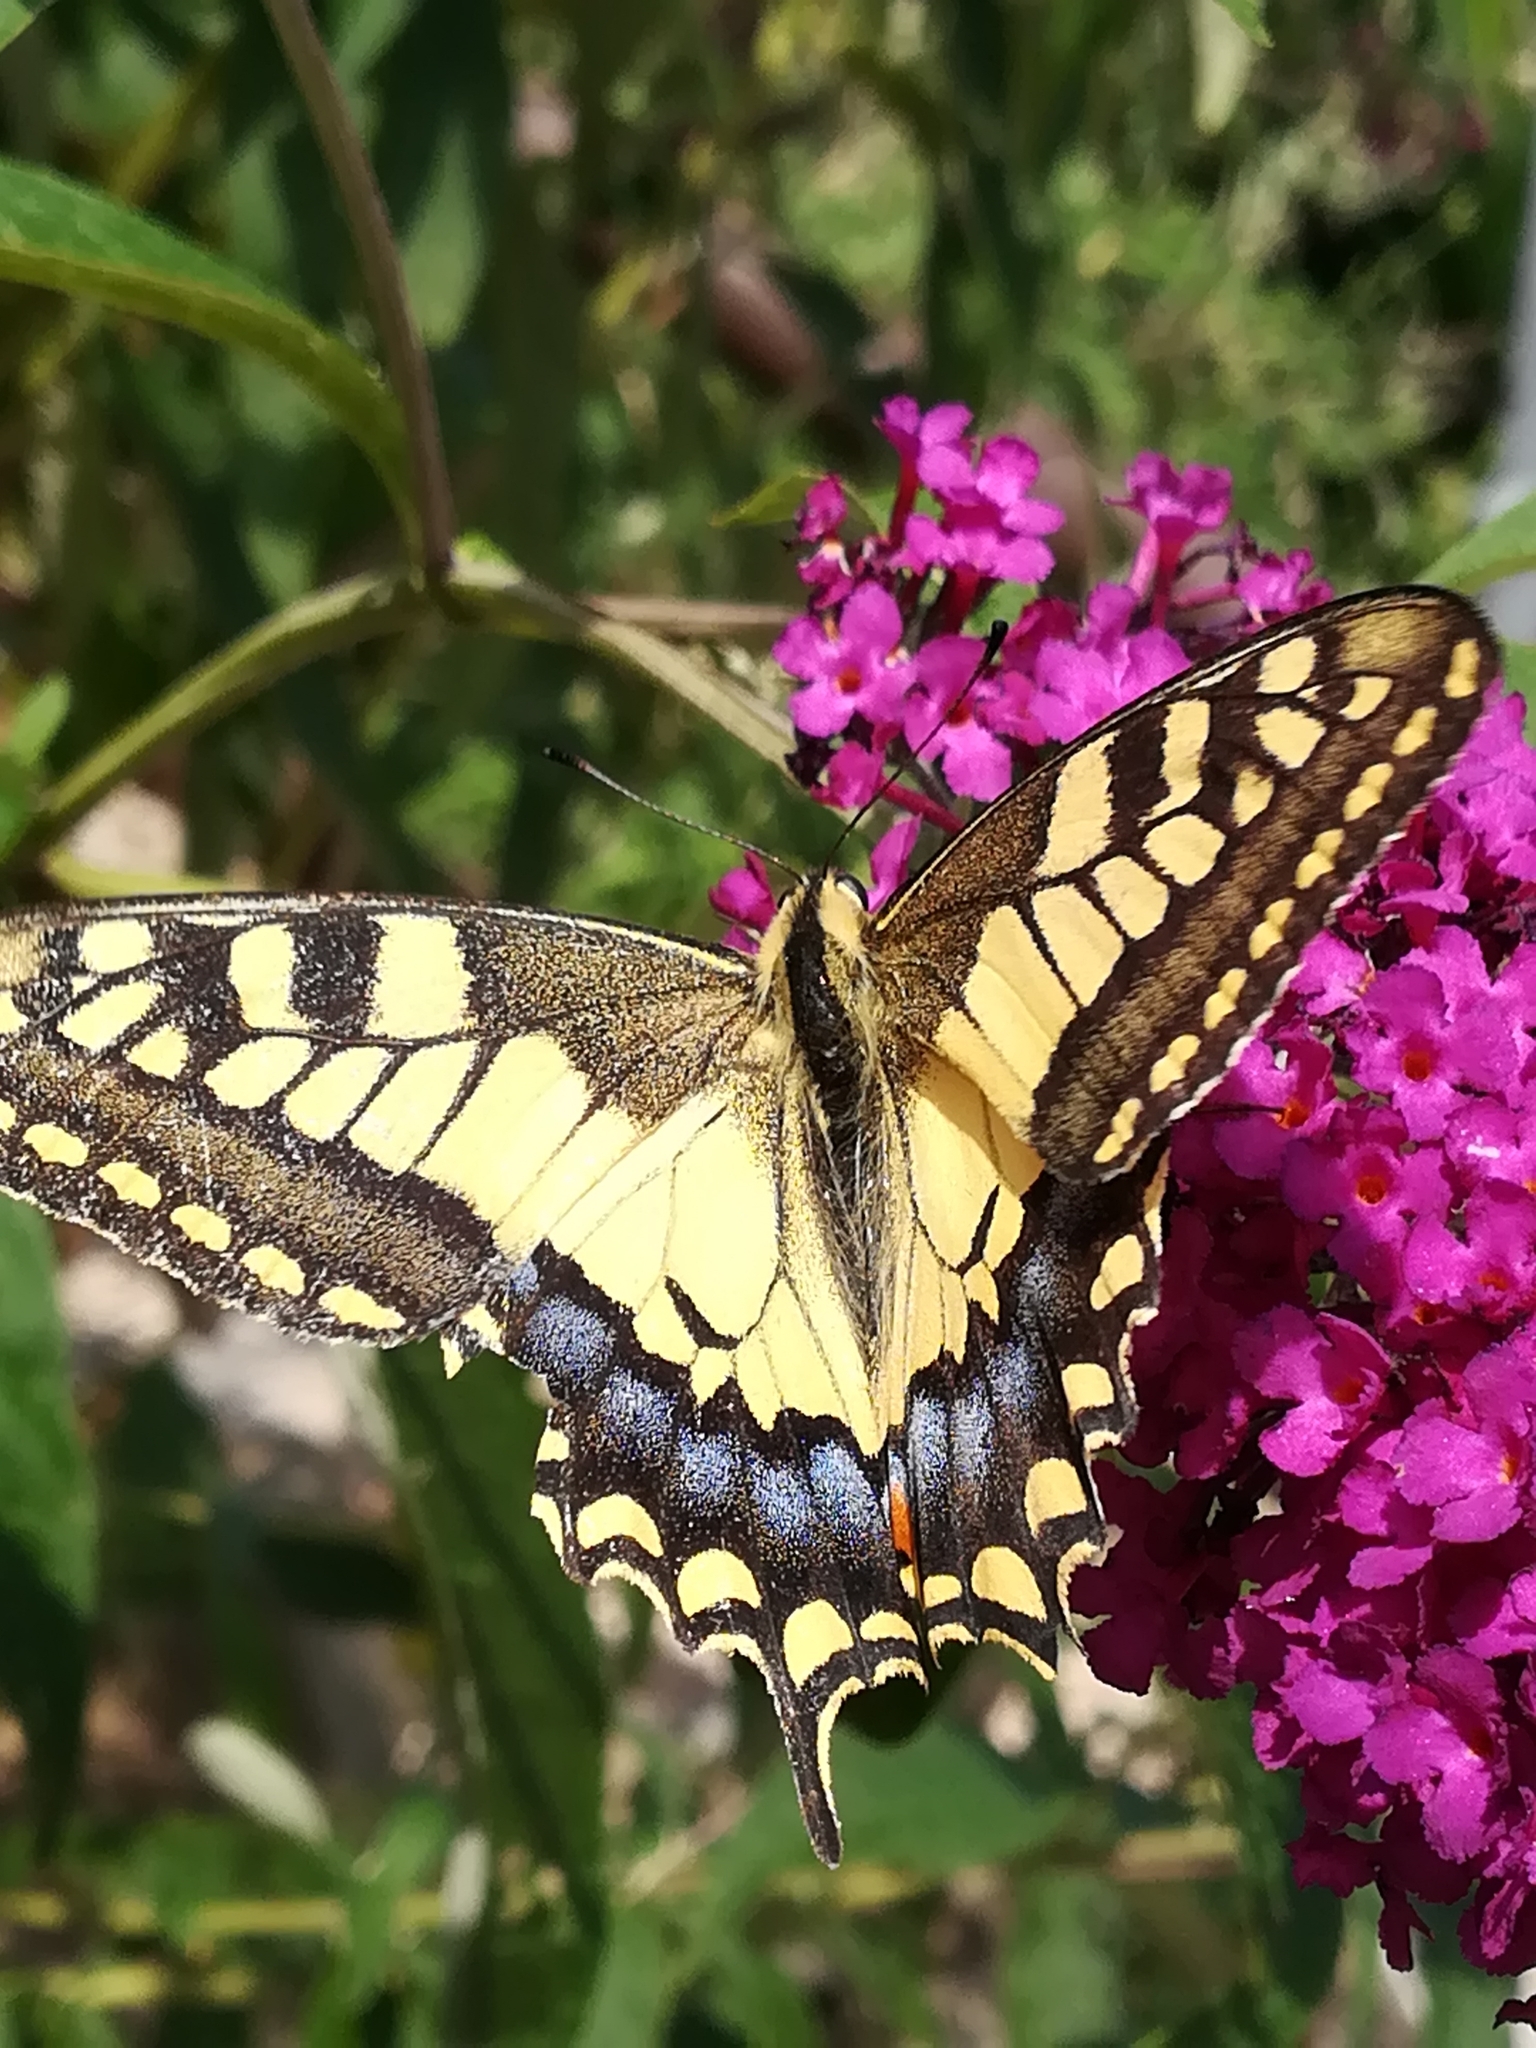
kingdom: Animalia
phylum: Arthropoda
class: Insecta
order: Lepidoptera
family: Papilionidae
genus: Papilio
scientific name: Papilio machaon
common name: Swallowtail
